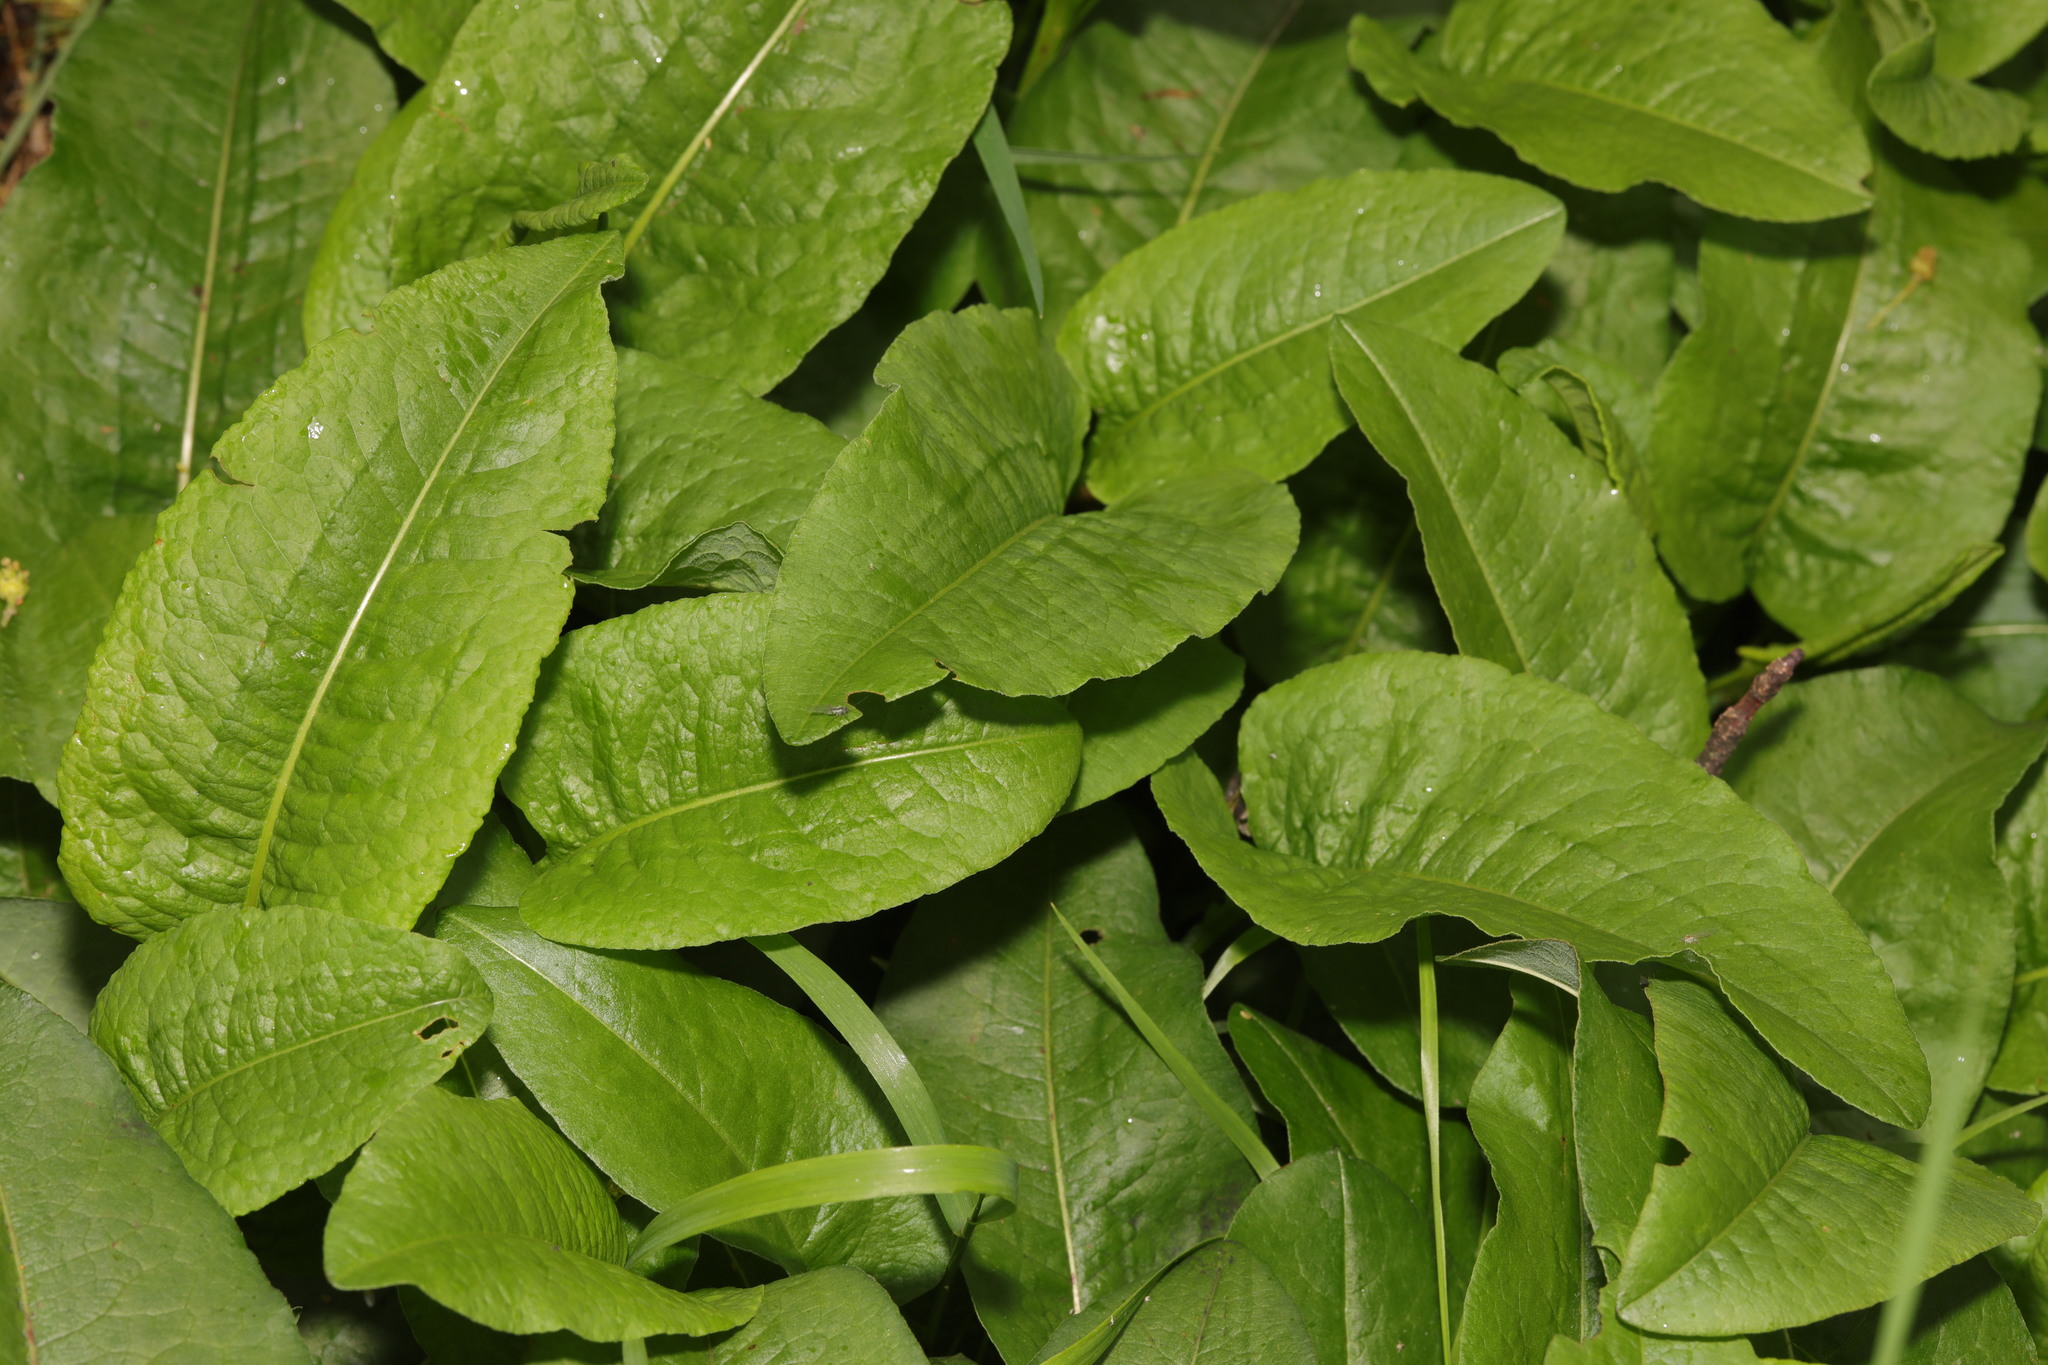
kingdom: Plantae
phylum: Tracheophyta
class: Magnoliopsida
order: Caryophyllales
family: Polygonaceae
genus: Bistorta
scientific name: Bistorta officinalis
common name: Common bistort
